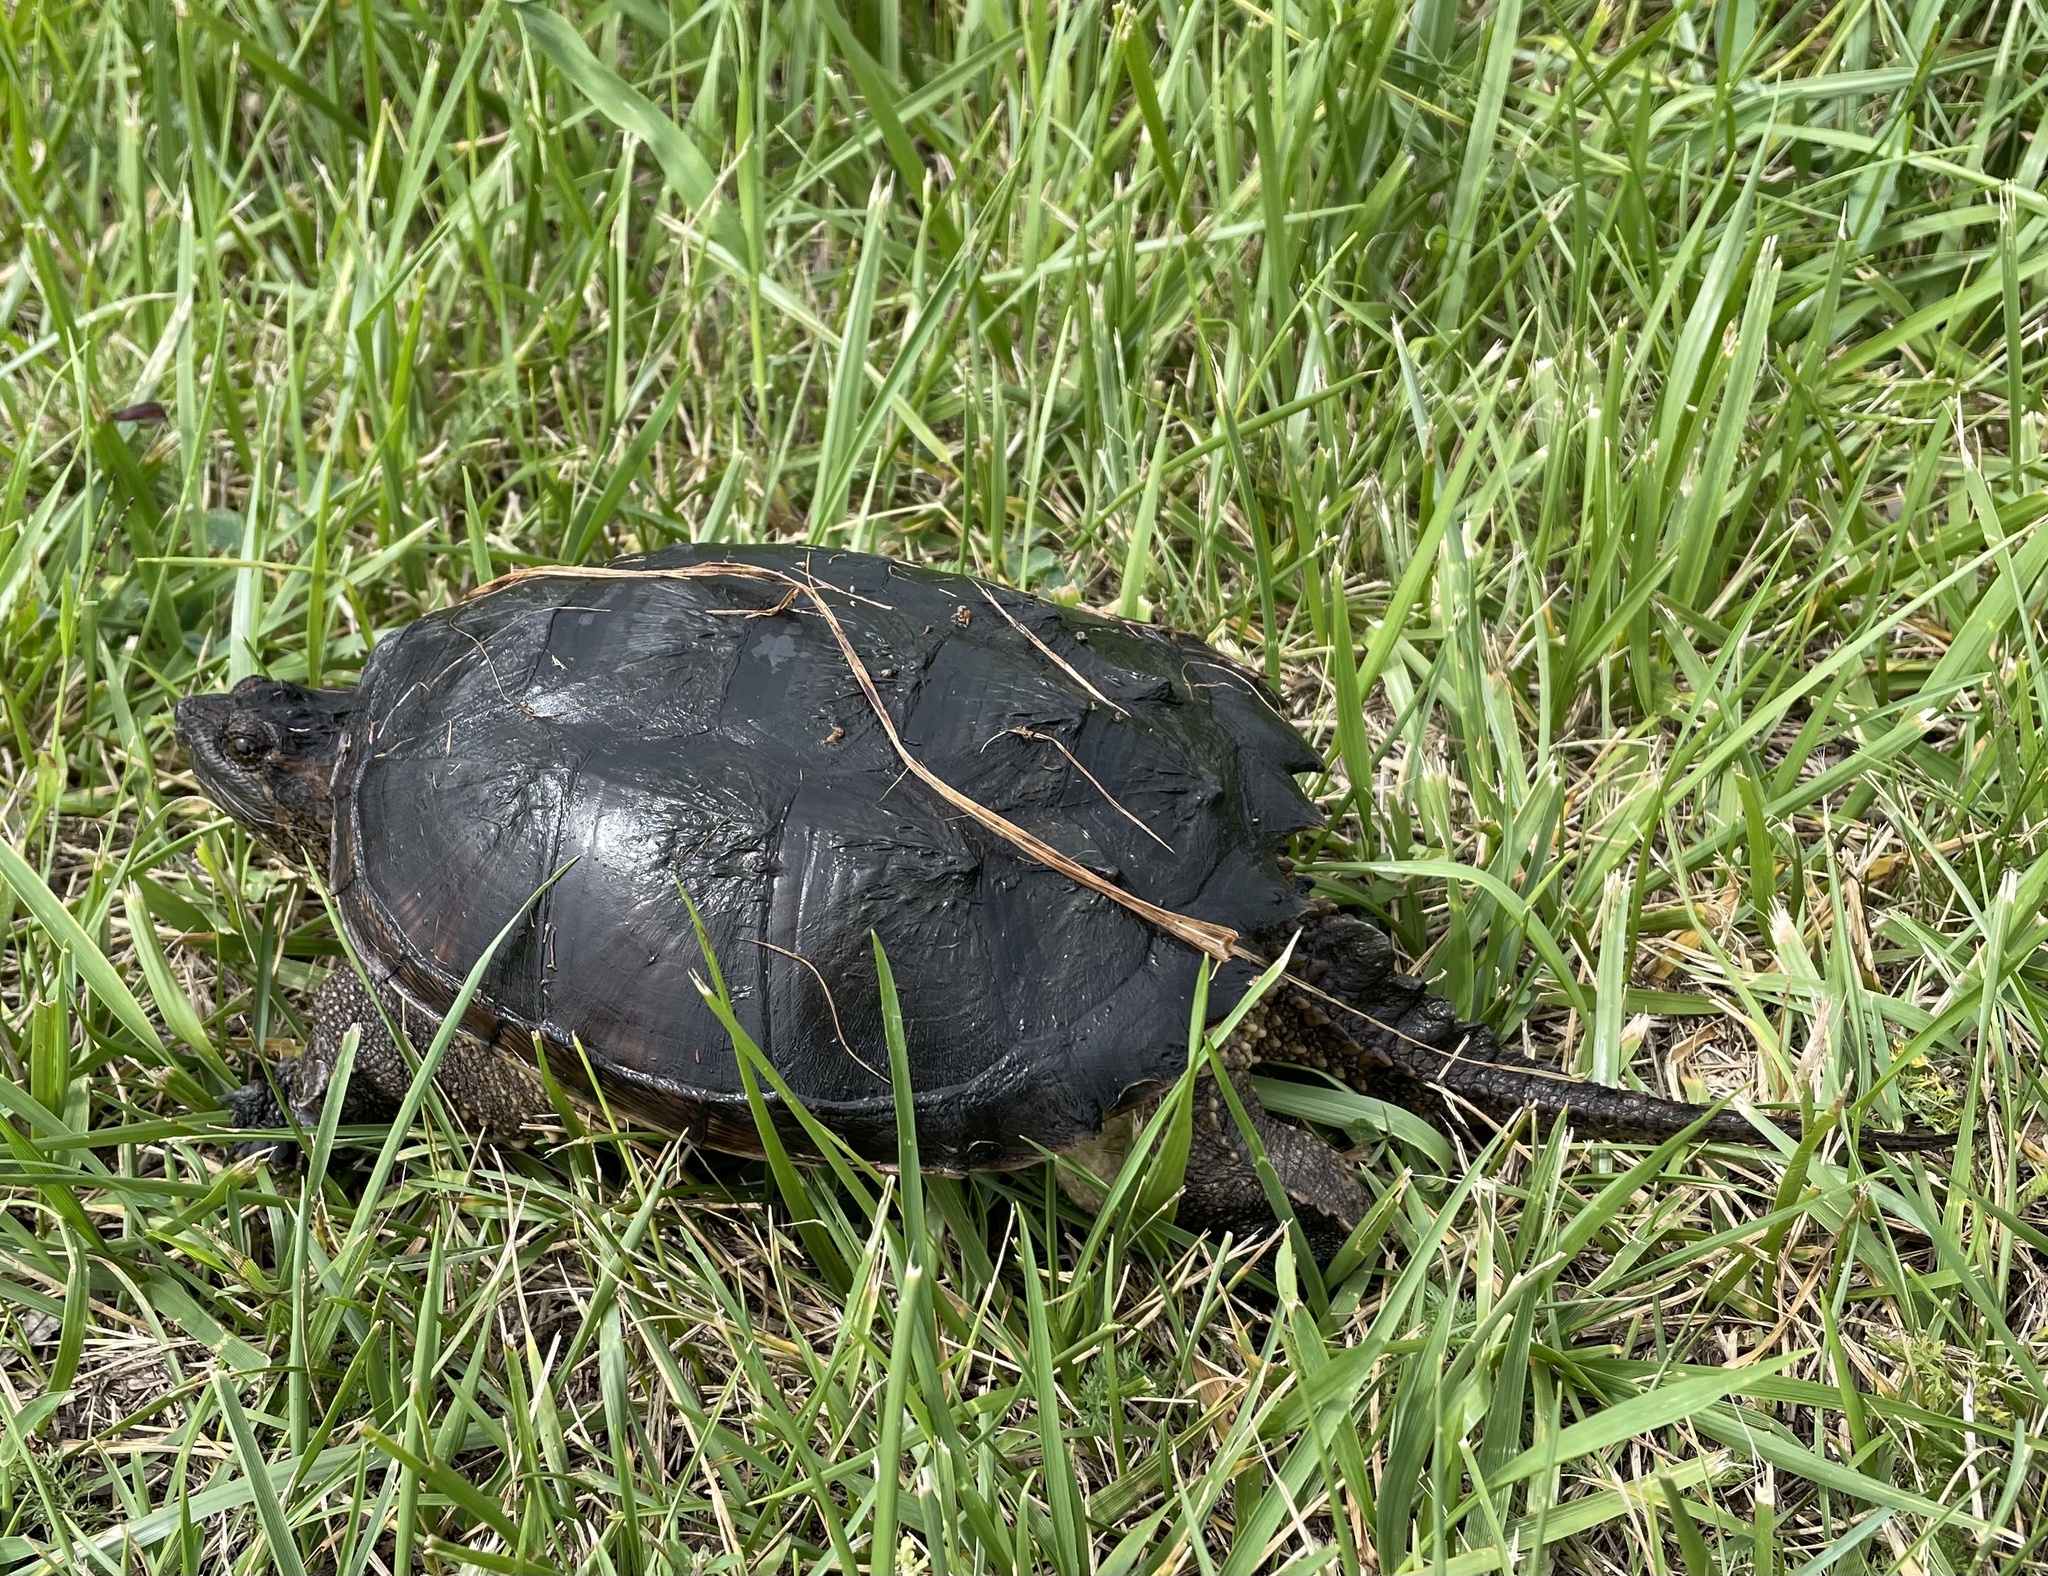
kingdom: Animalia
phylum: Chordata
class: Testudines
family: Chelydridae
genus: Chelydra
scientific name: Chelydra serpentina
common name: Common snapping turtle
